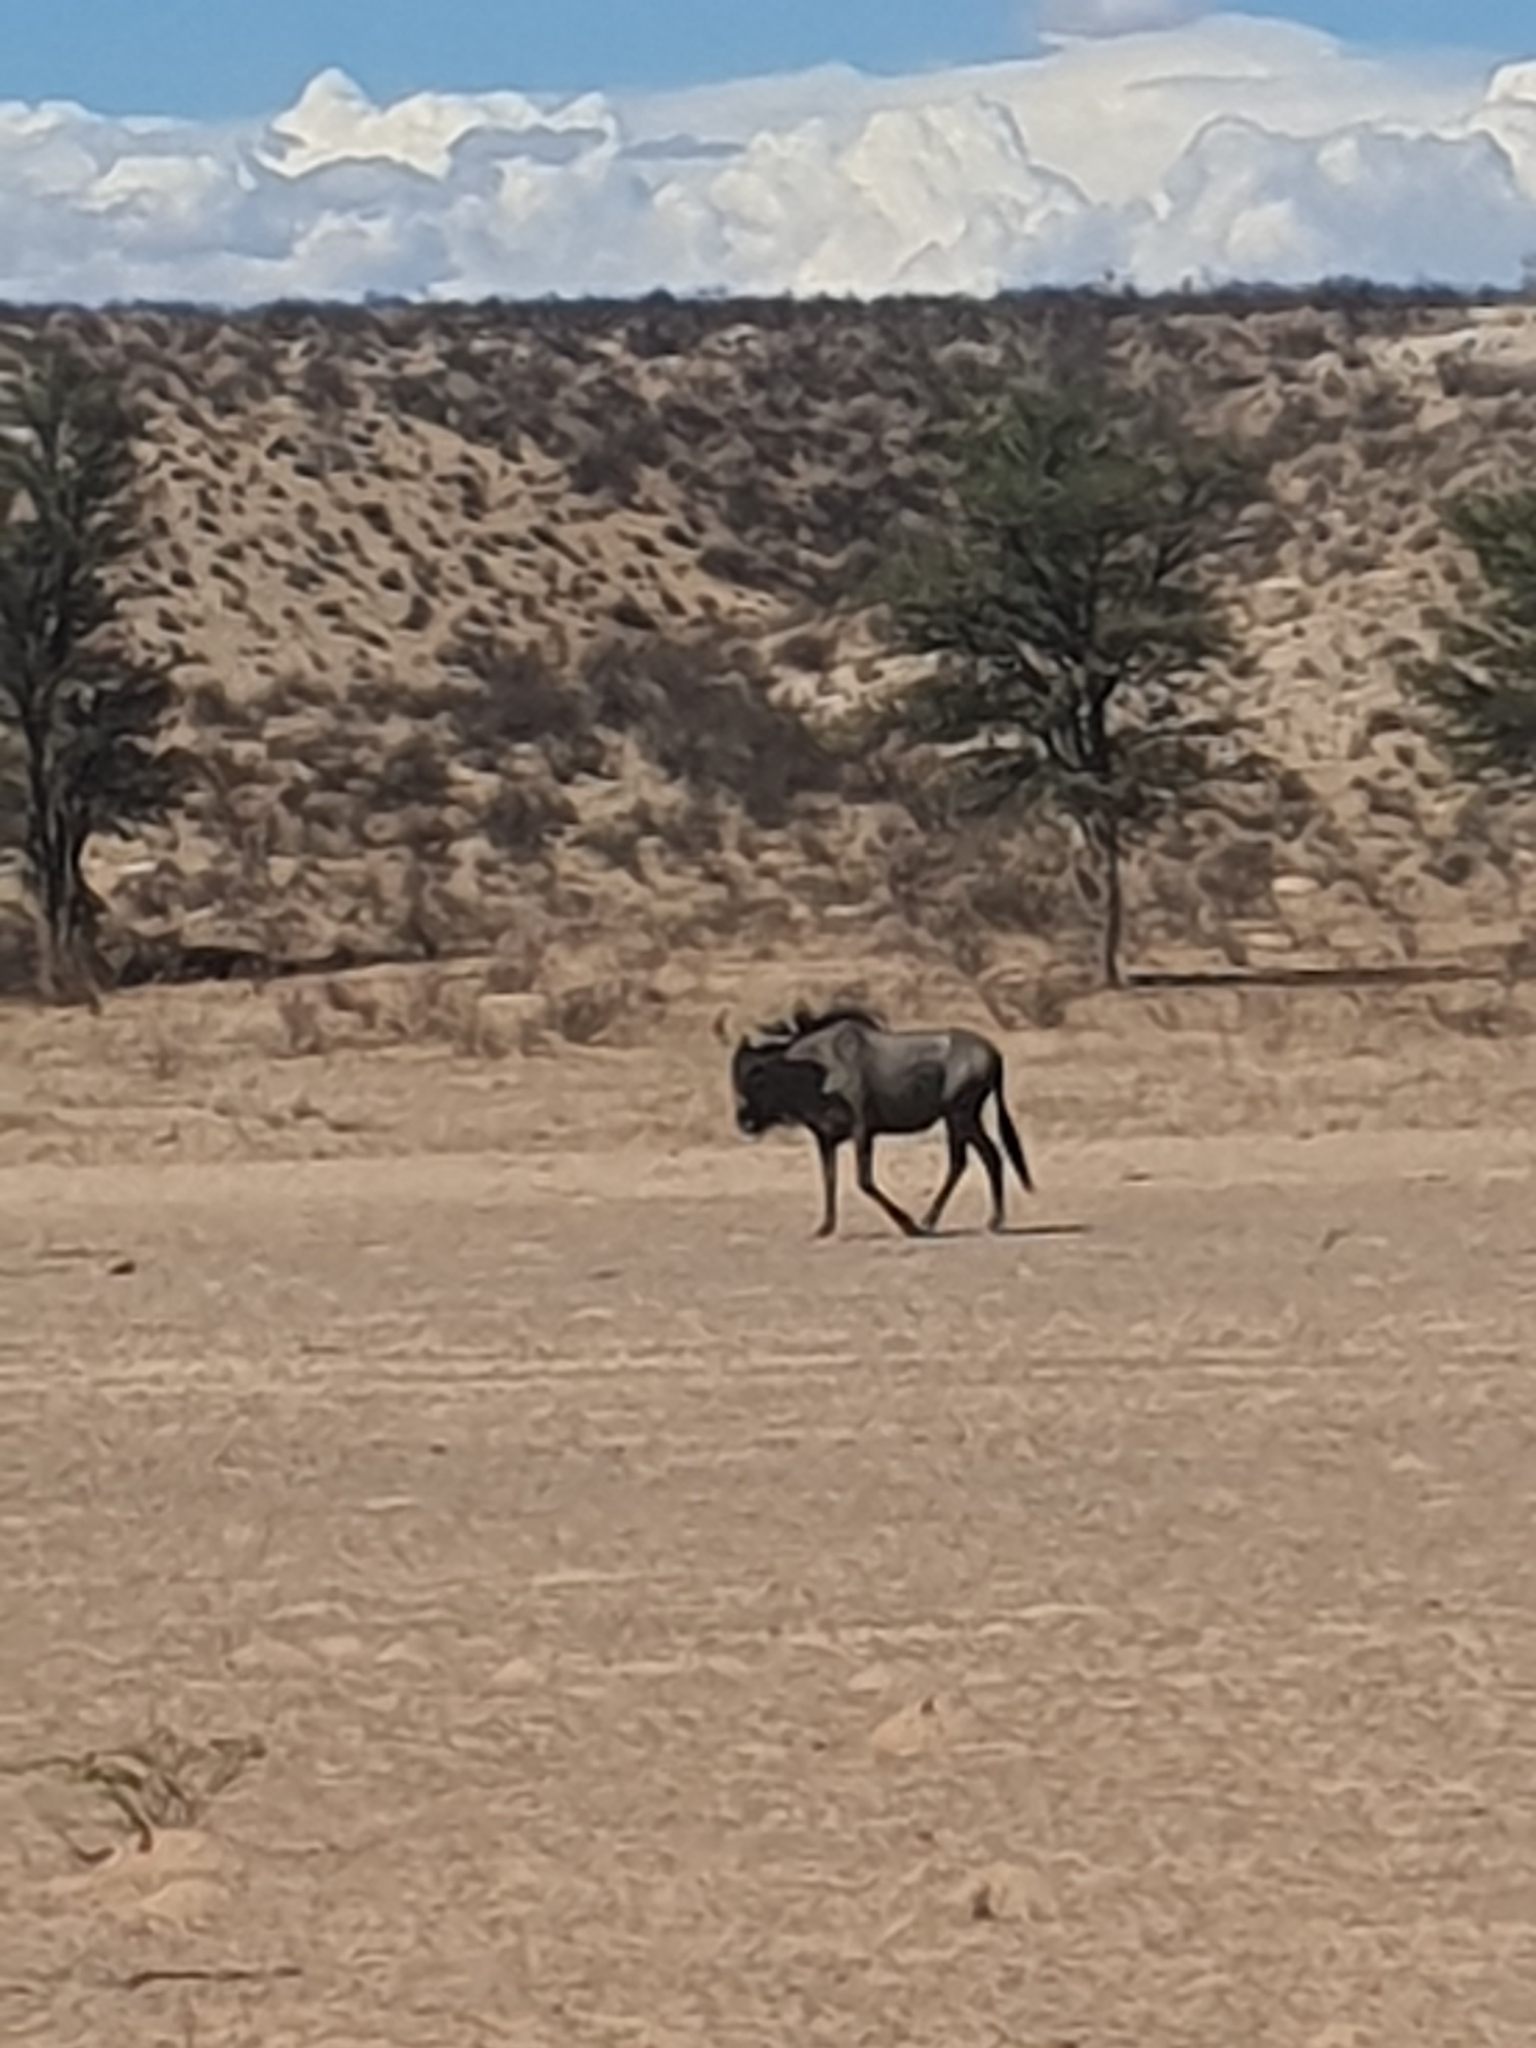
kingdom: Animalia
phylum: Chordata
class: Mammalia
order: Artiodactyla
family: Bovidae
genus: Connochaetes
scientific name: Connochaetes taurinus
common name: Blue wildebeest
